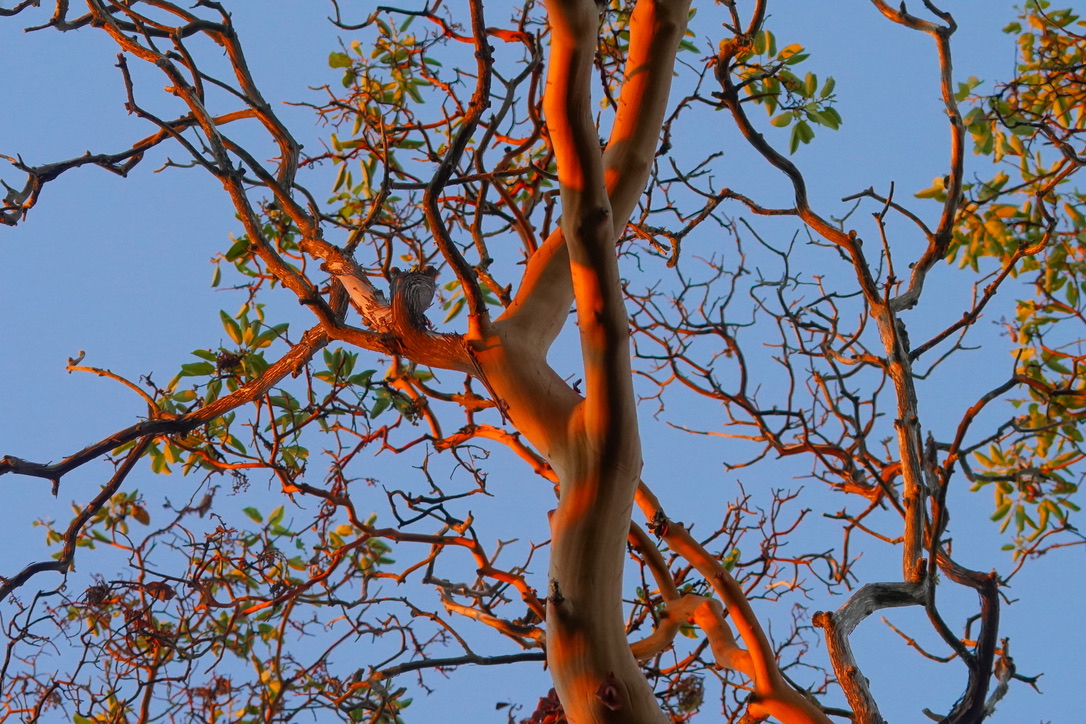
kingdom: Plantae
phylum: Tracheophyta
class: Magnoliopsida
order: Ericales
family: Ericaceae
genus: Arbutus
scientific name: Arbutus menziesii
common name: Pacific madrone
